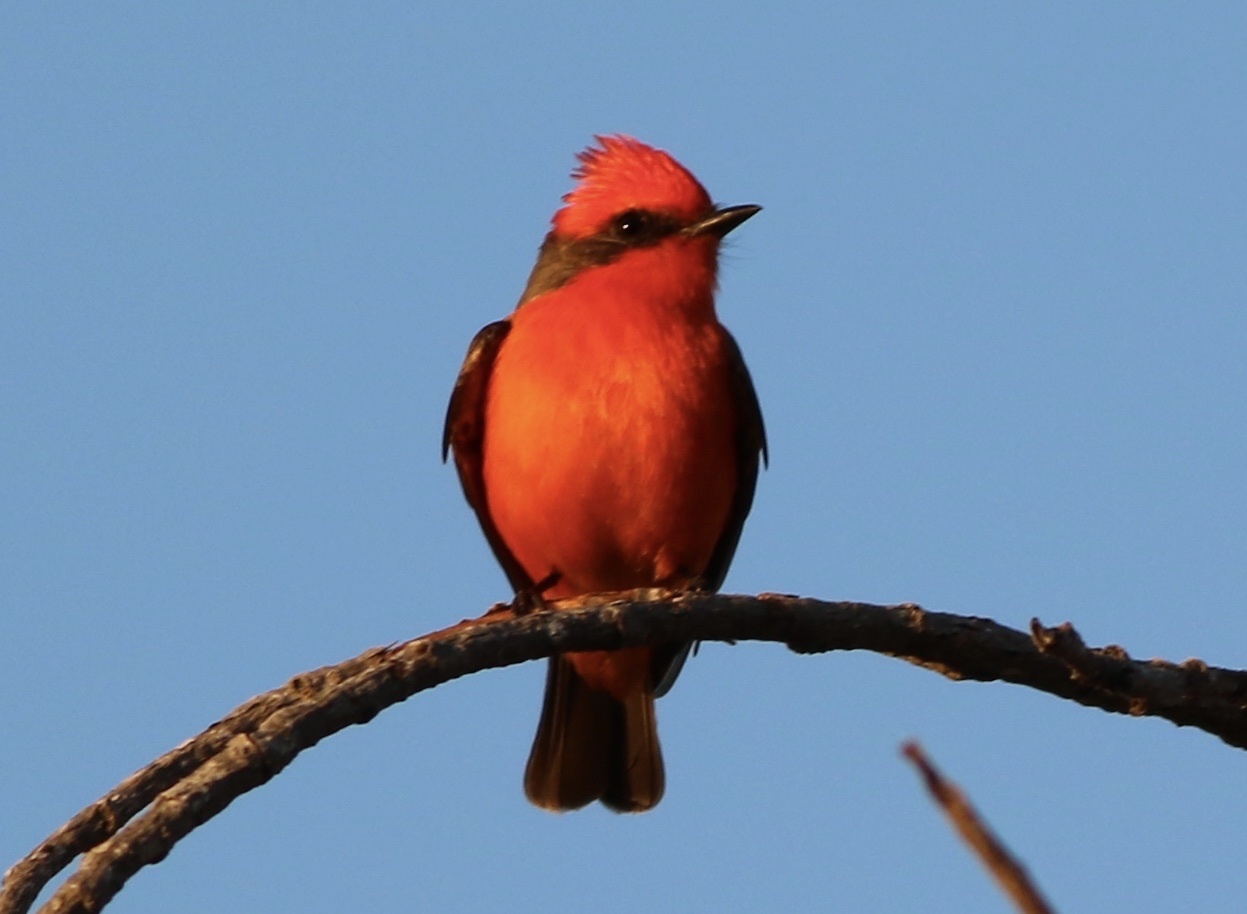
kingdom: Animalia
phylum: Chordata
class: Aves
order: Passeriformes
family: Tyrannidae
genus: Pyrocephalus
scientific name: Pyrocephalus rubinus
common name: Vermilion flycatcher
